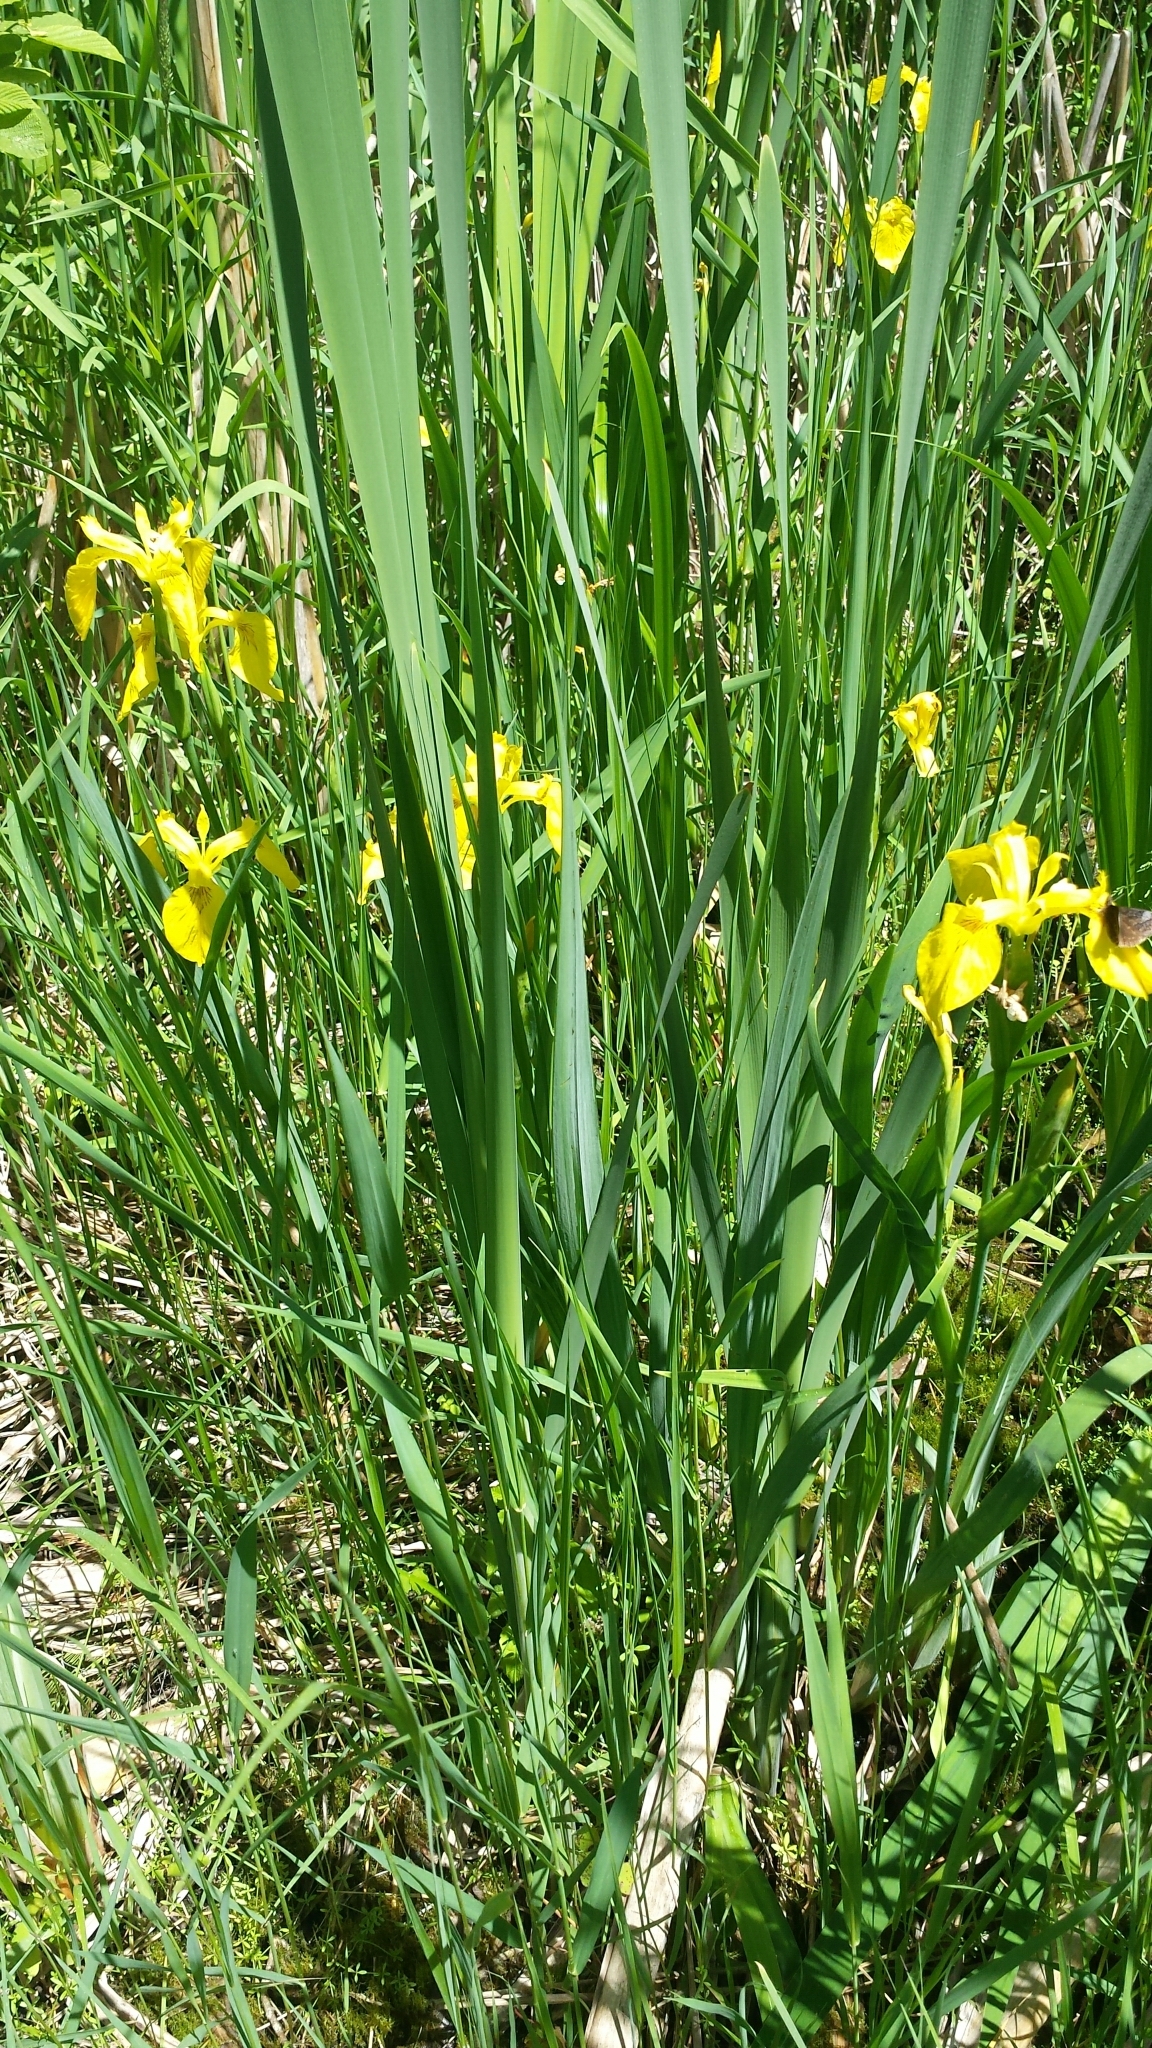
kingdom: Plantae
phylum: Tracheophyta
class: Liliopsida
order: Asparagales
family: Iridaceae
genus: Iris
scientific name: Iris pseudacorus
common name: Yellow flag
